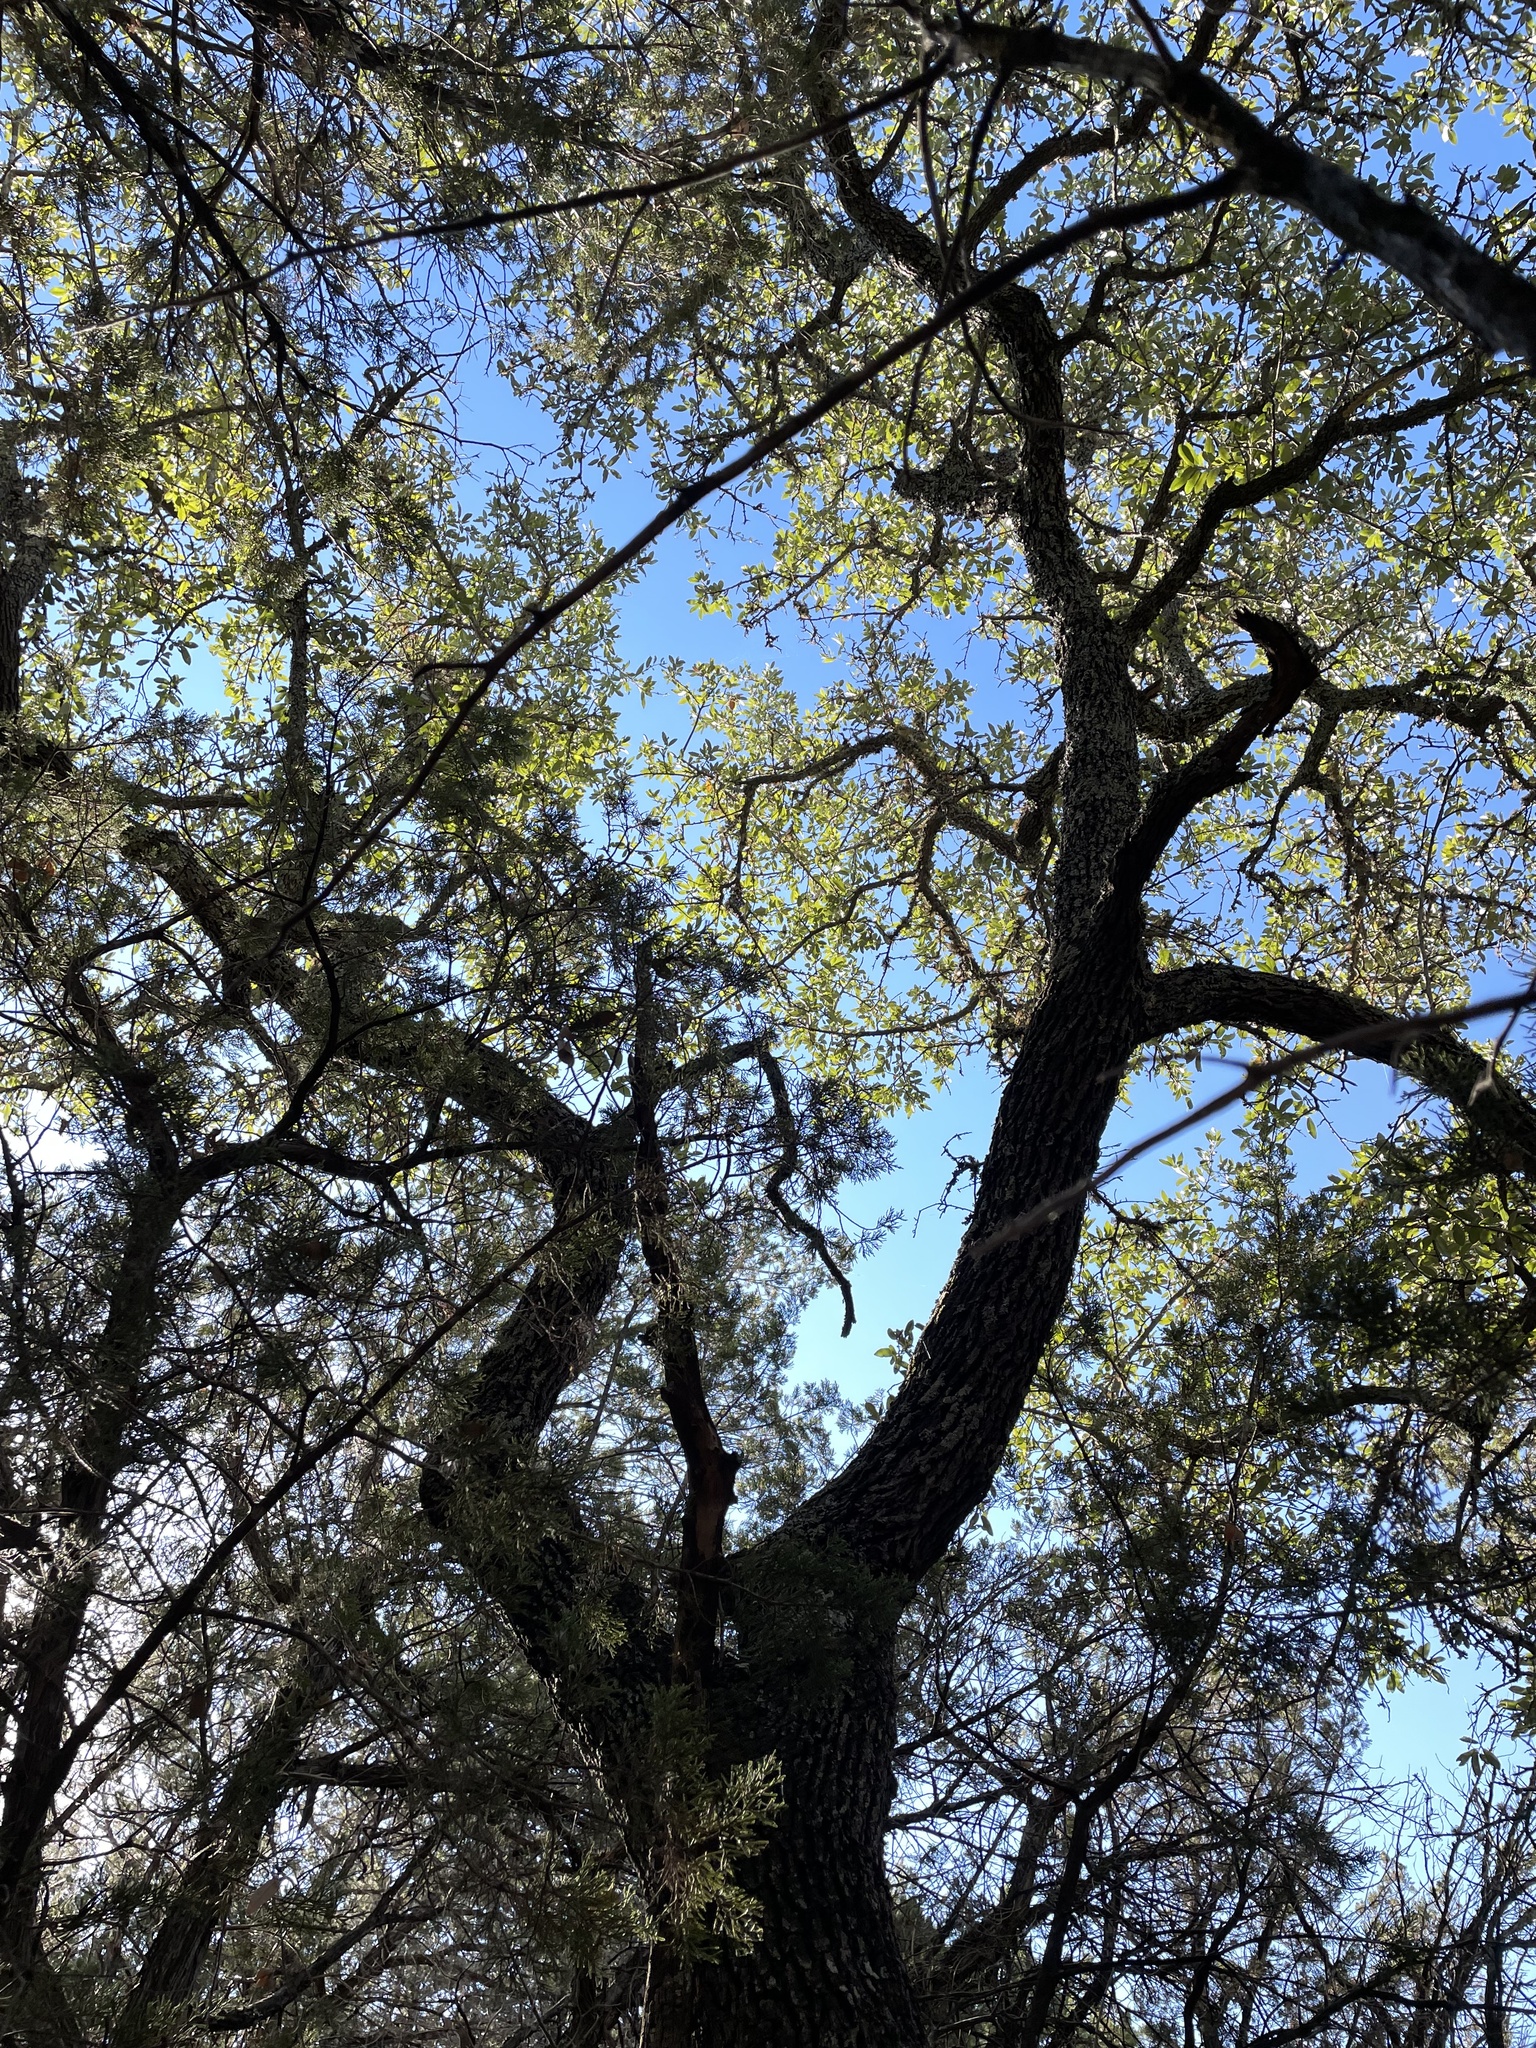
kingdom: Plantae
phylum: Tracheophyta
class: Magnoliopsida
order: Fagales
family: Fagaceae
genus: Quercus
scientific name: Quercus fusiformis
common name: Texas live oak
